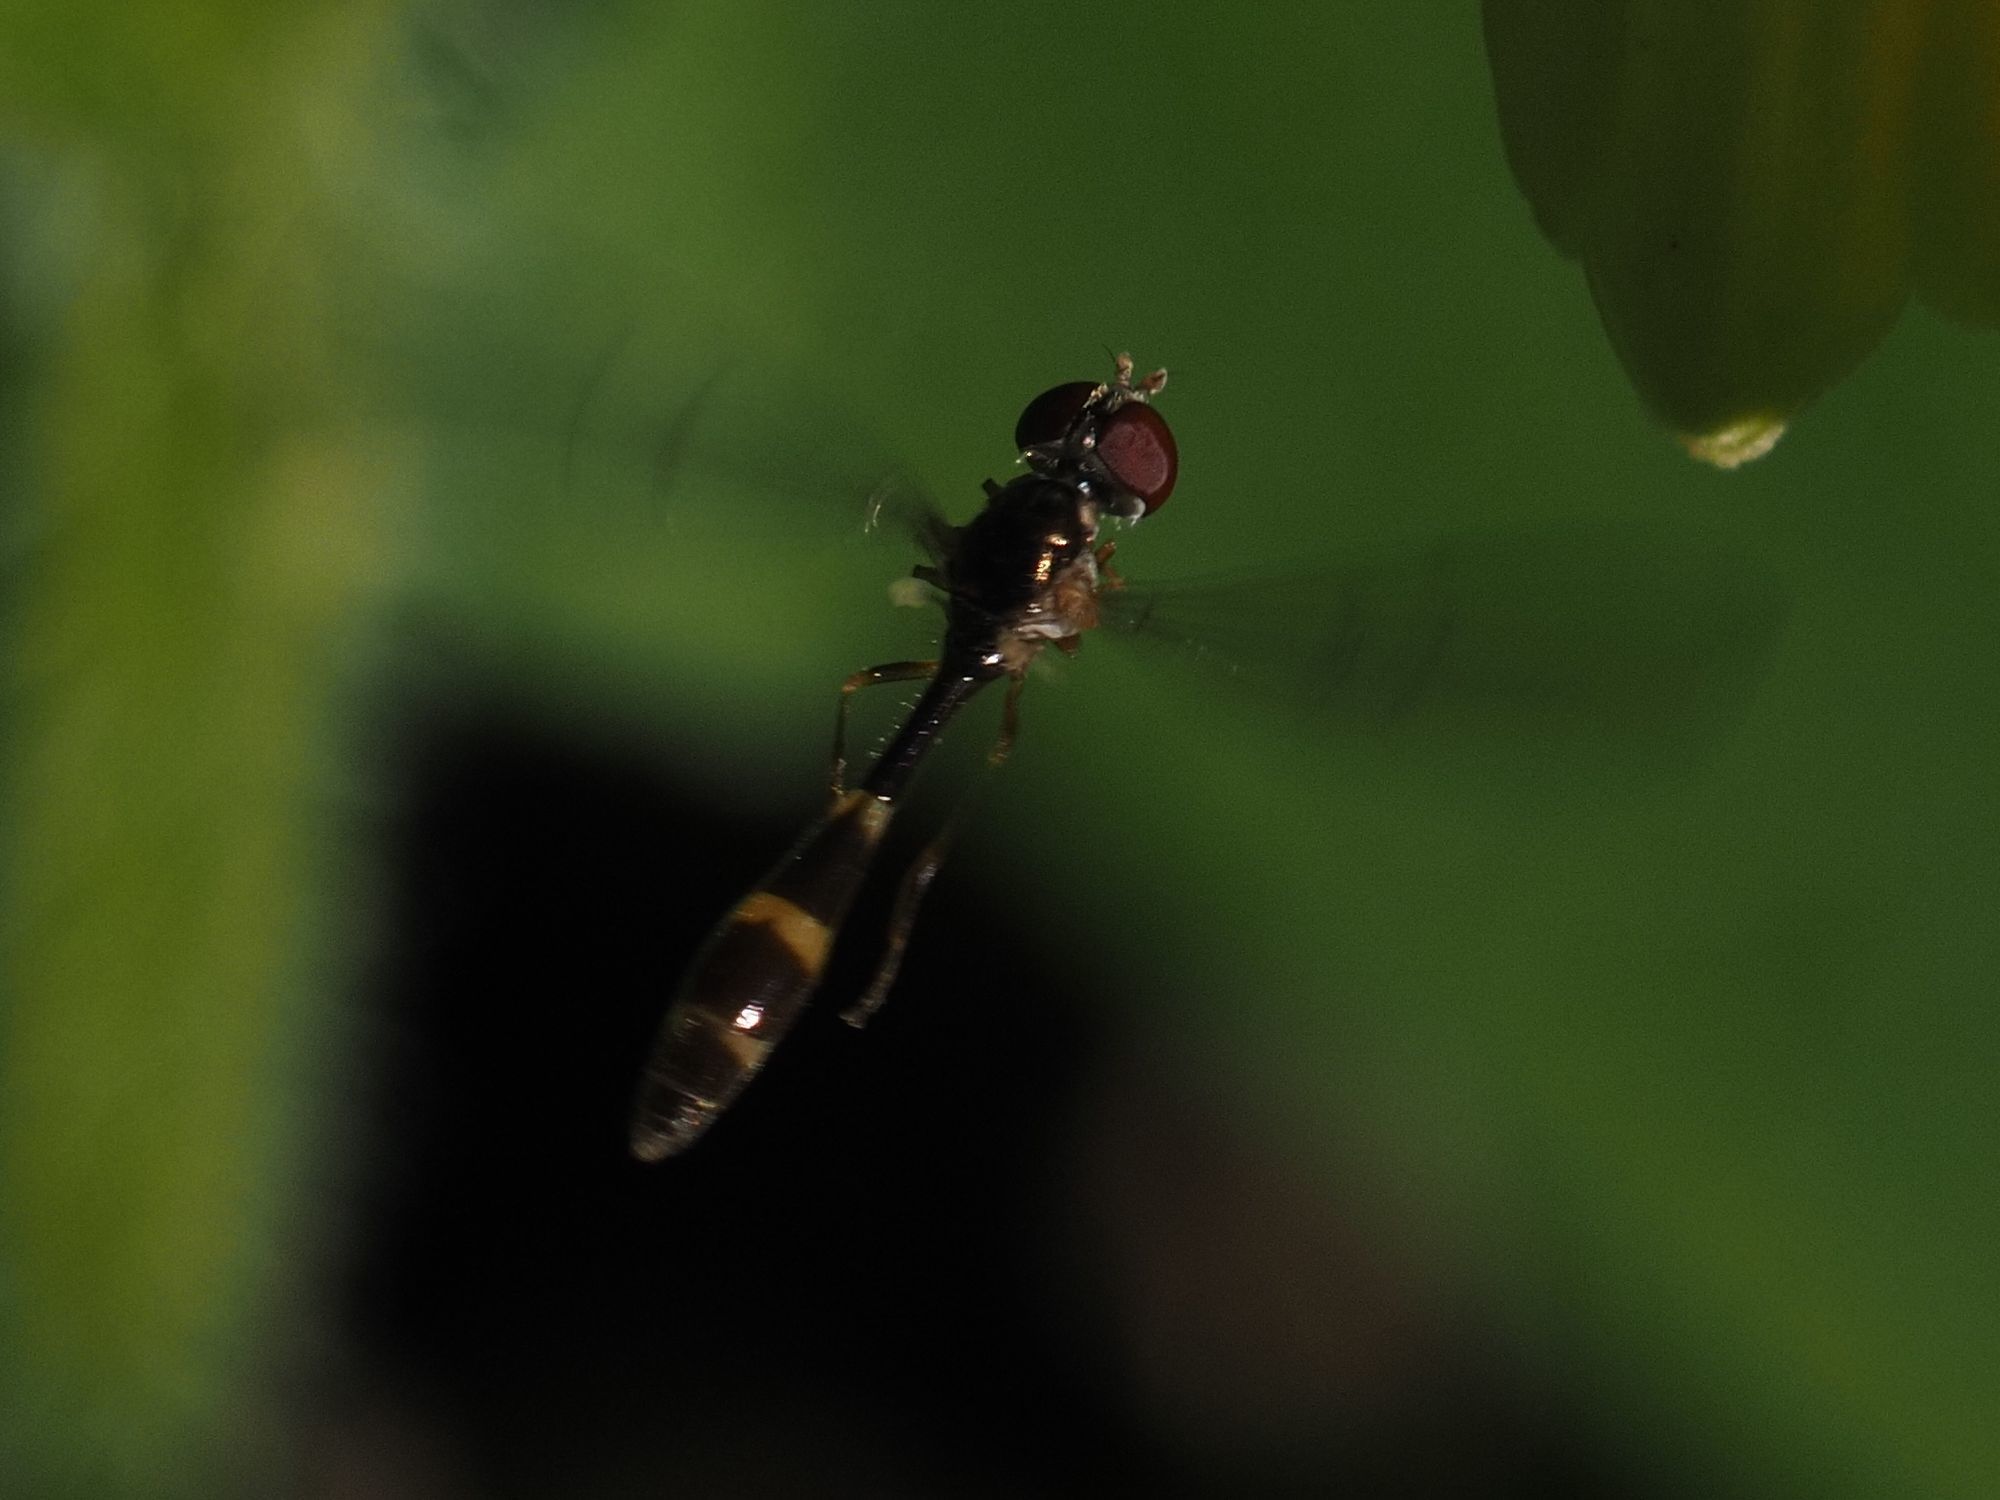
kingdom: Animalia
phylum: Arthropoda
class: Insecta
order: Diptera
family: Syrphidae
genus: Baccha
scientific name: Baccha elongata
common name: Common dainty
